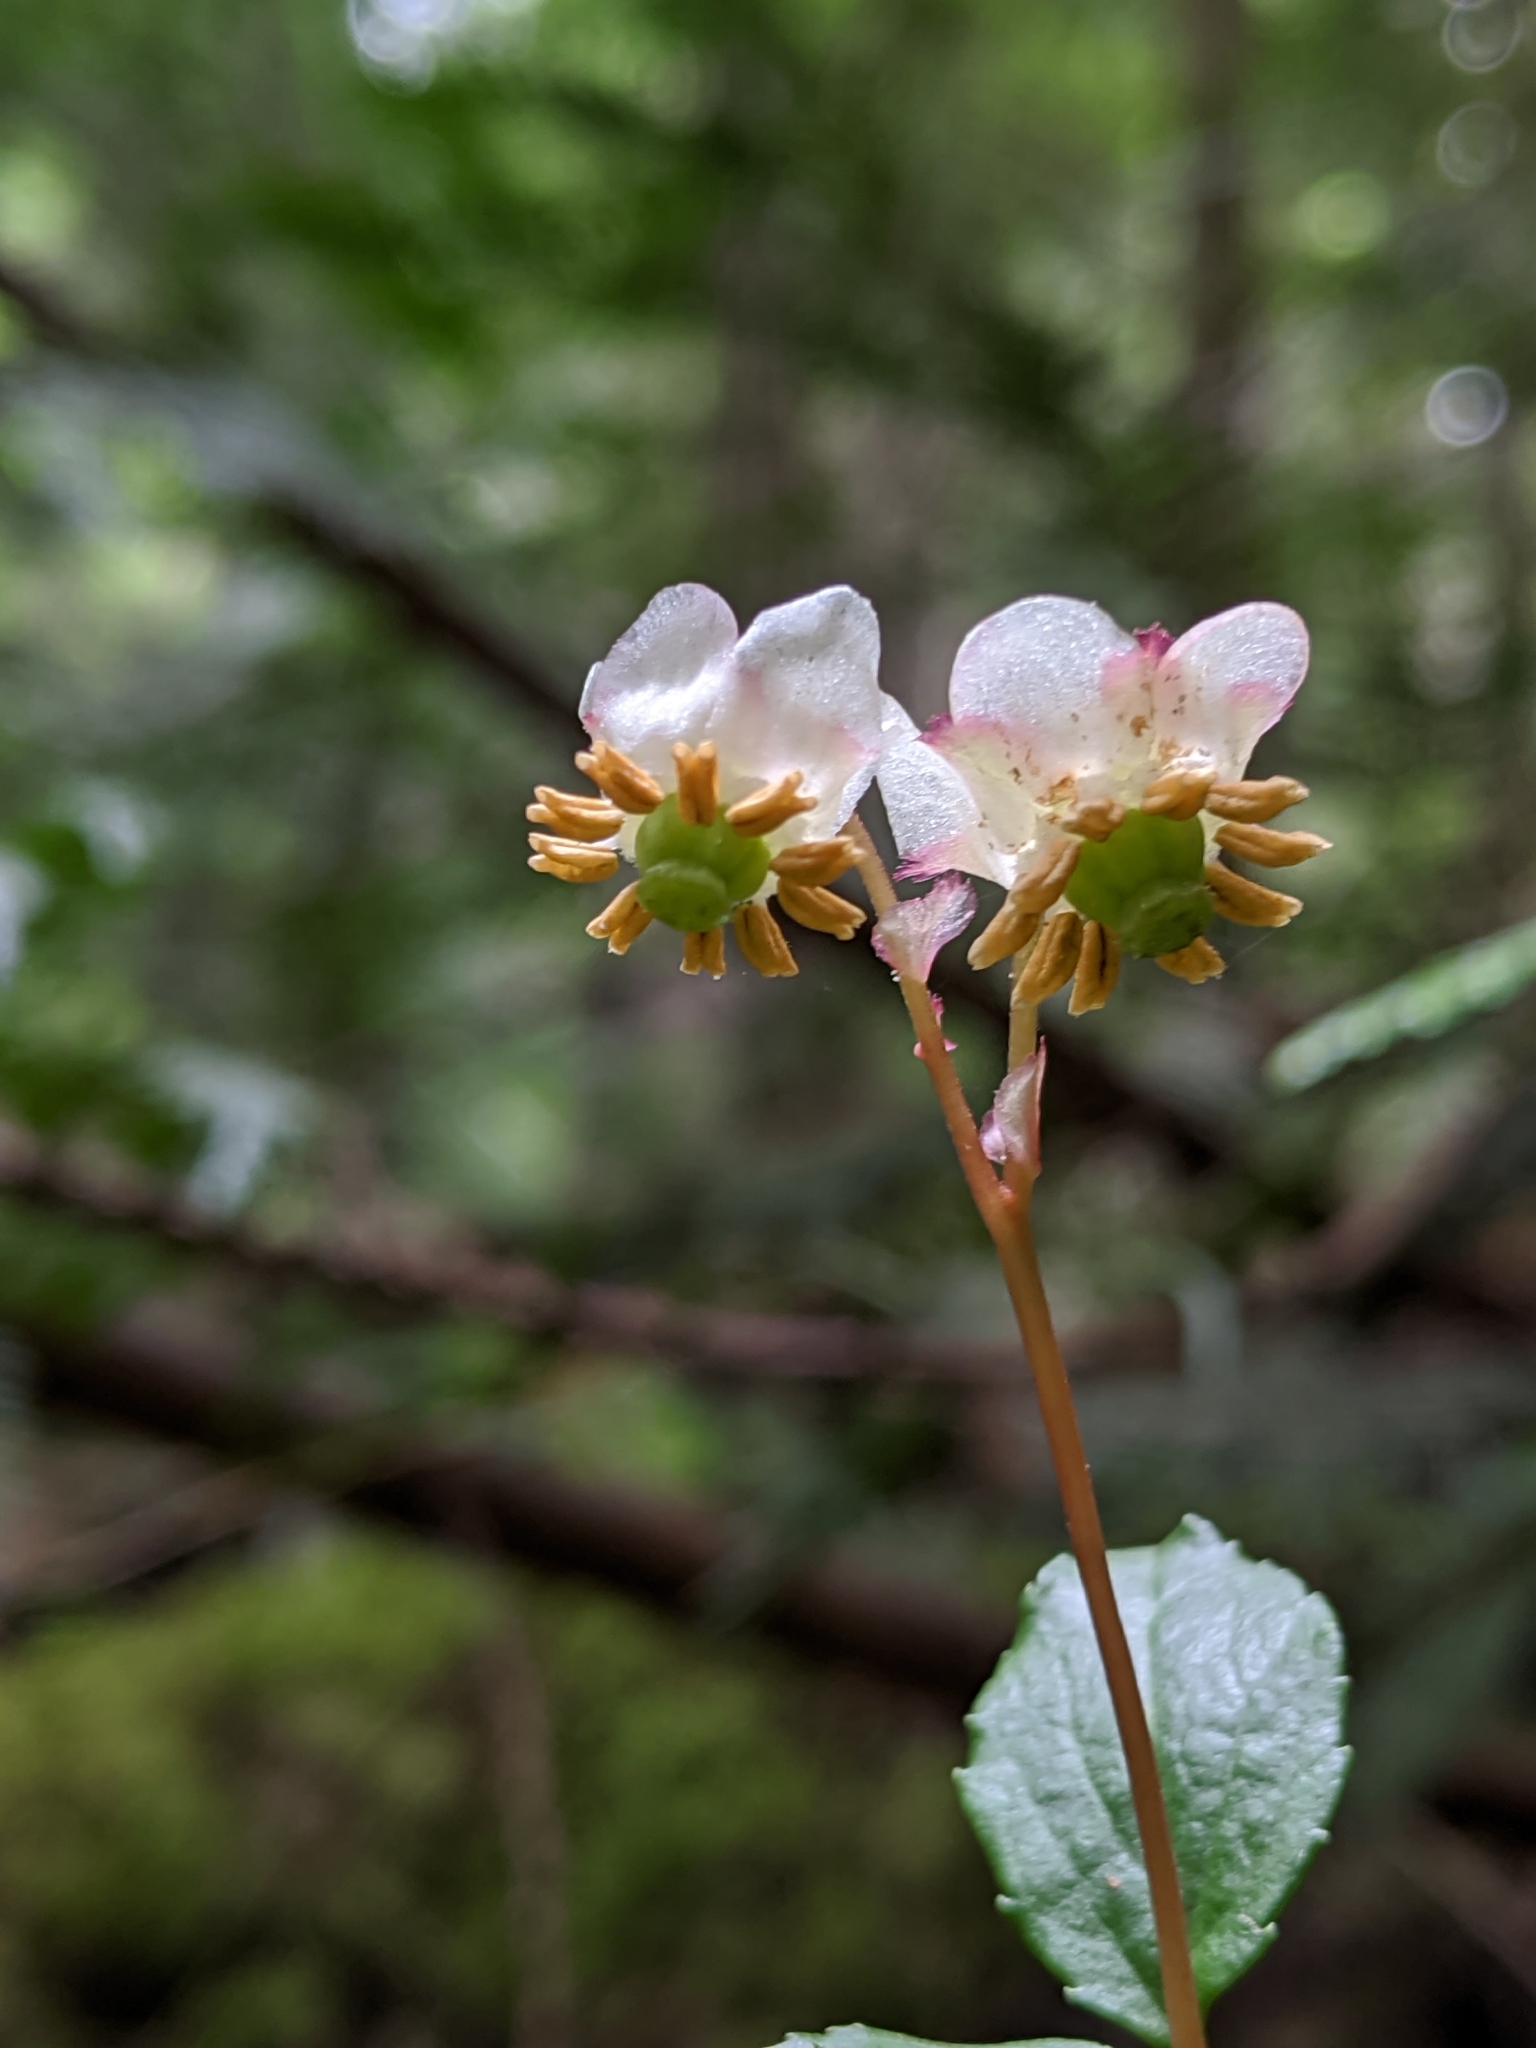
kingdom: Plantae
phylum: Tracheophyta
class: Magnoliopsida
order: Ericales
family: Ericaceae
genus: Chimaphila
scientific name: Chimaphila menziesii
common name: Menzies' pipsissewa
